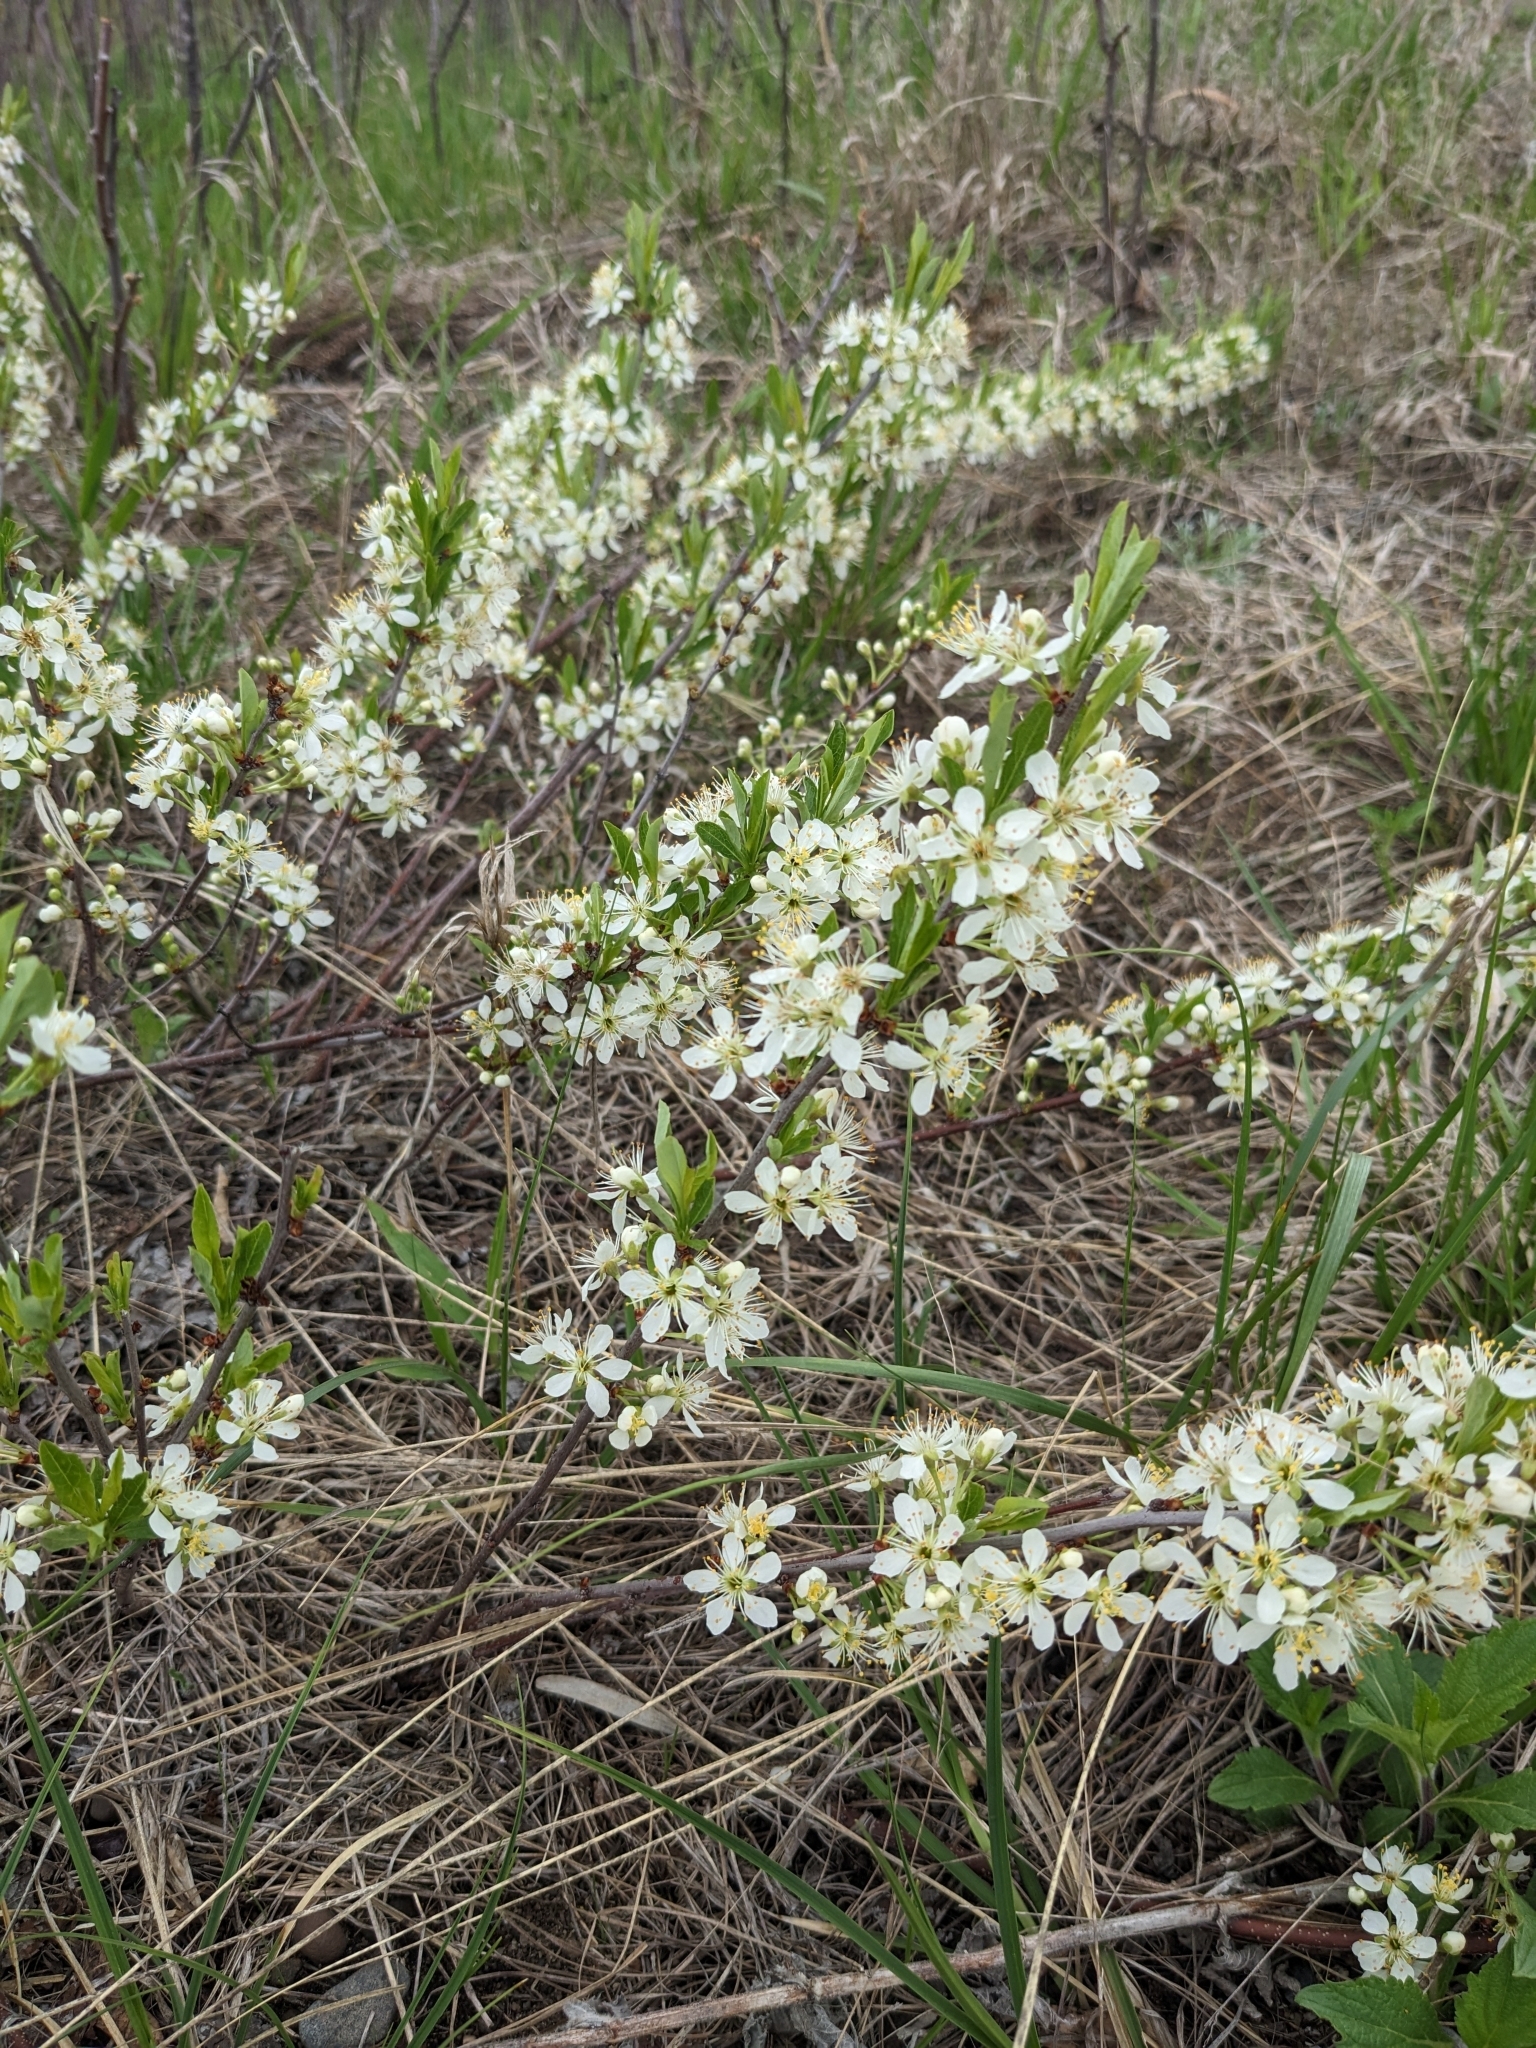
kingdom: Plantae
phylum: Tracheophyta
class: Magnoliopsida
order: Rosales
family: Rosaceae
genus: Prunus
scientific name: Prunus pumila
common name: Dwarf cherry
